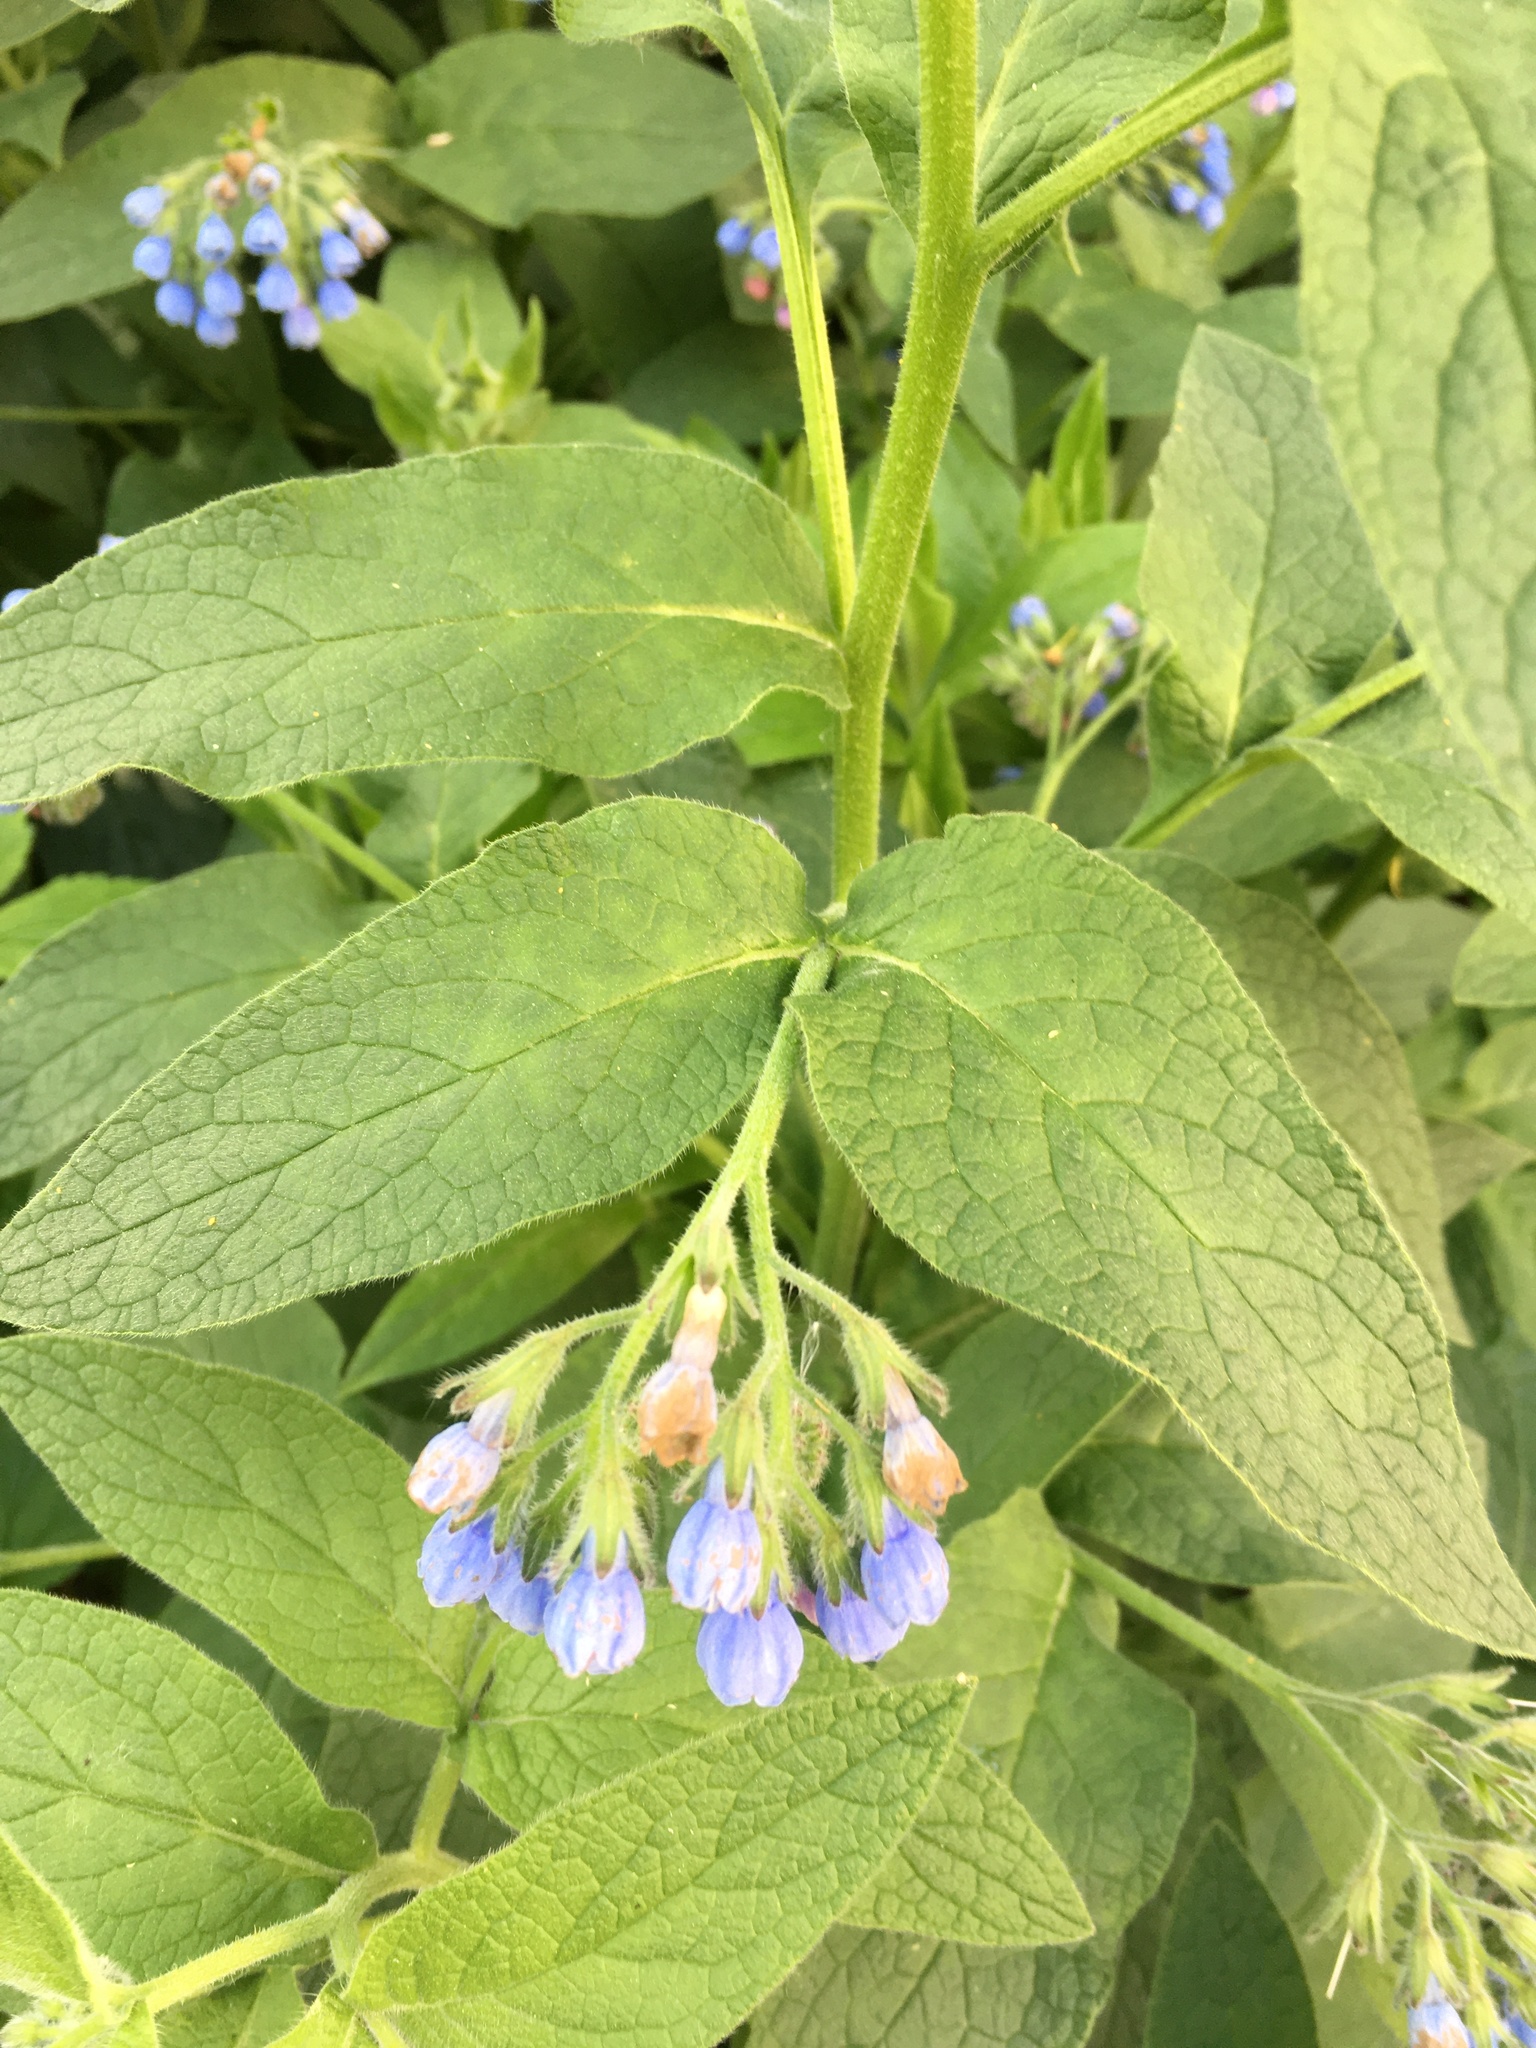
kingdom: Plantae
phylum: Tracheophyta
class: Magnoliopsida
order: Boraginales
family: Boraginaceae
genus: Symphytum
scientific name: Symphytum caucasicum
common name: Caucasian comfrey
